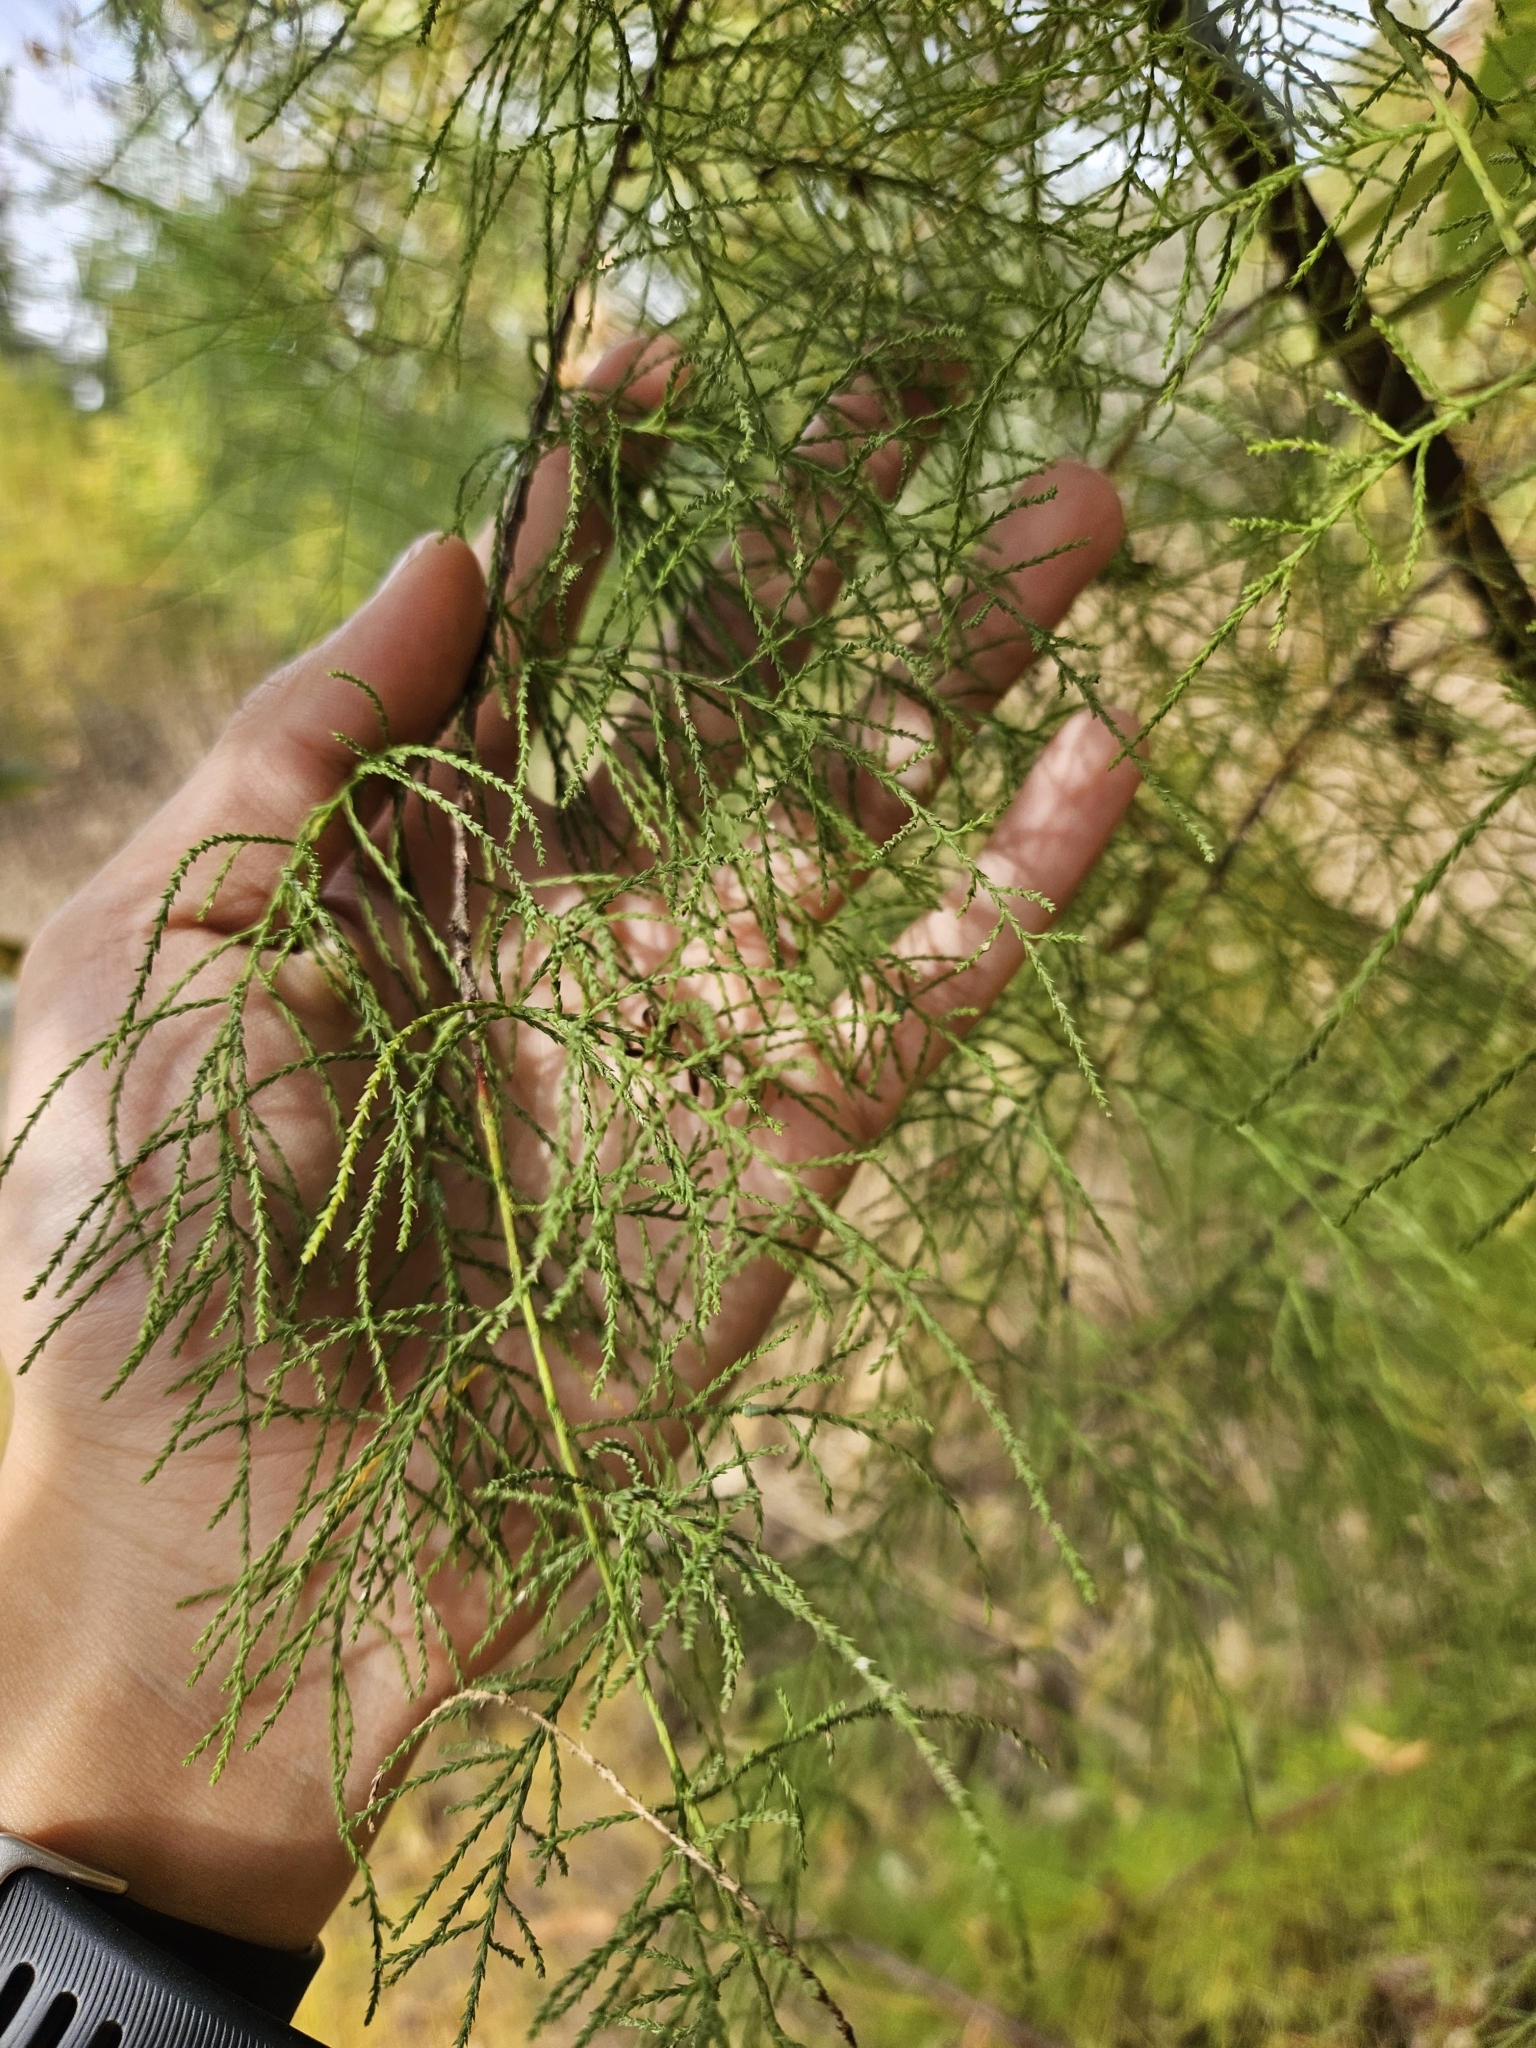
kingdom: Plantae
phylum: Tracheophyta
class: Magnoliopsida
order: Caryophyllales
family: Tamaricaceae
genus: Tamarix
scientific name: Tamarix
